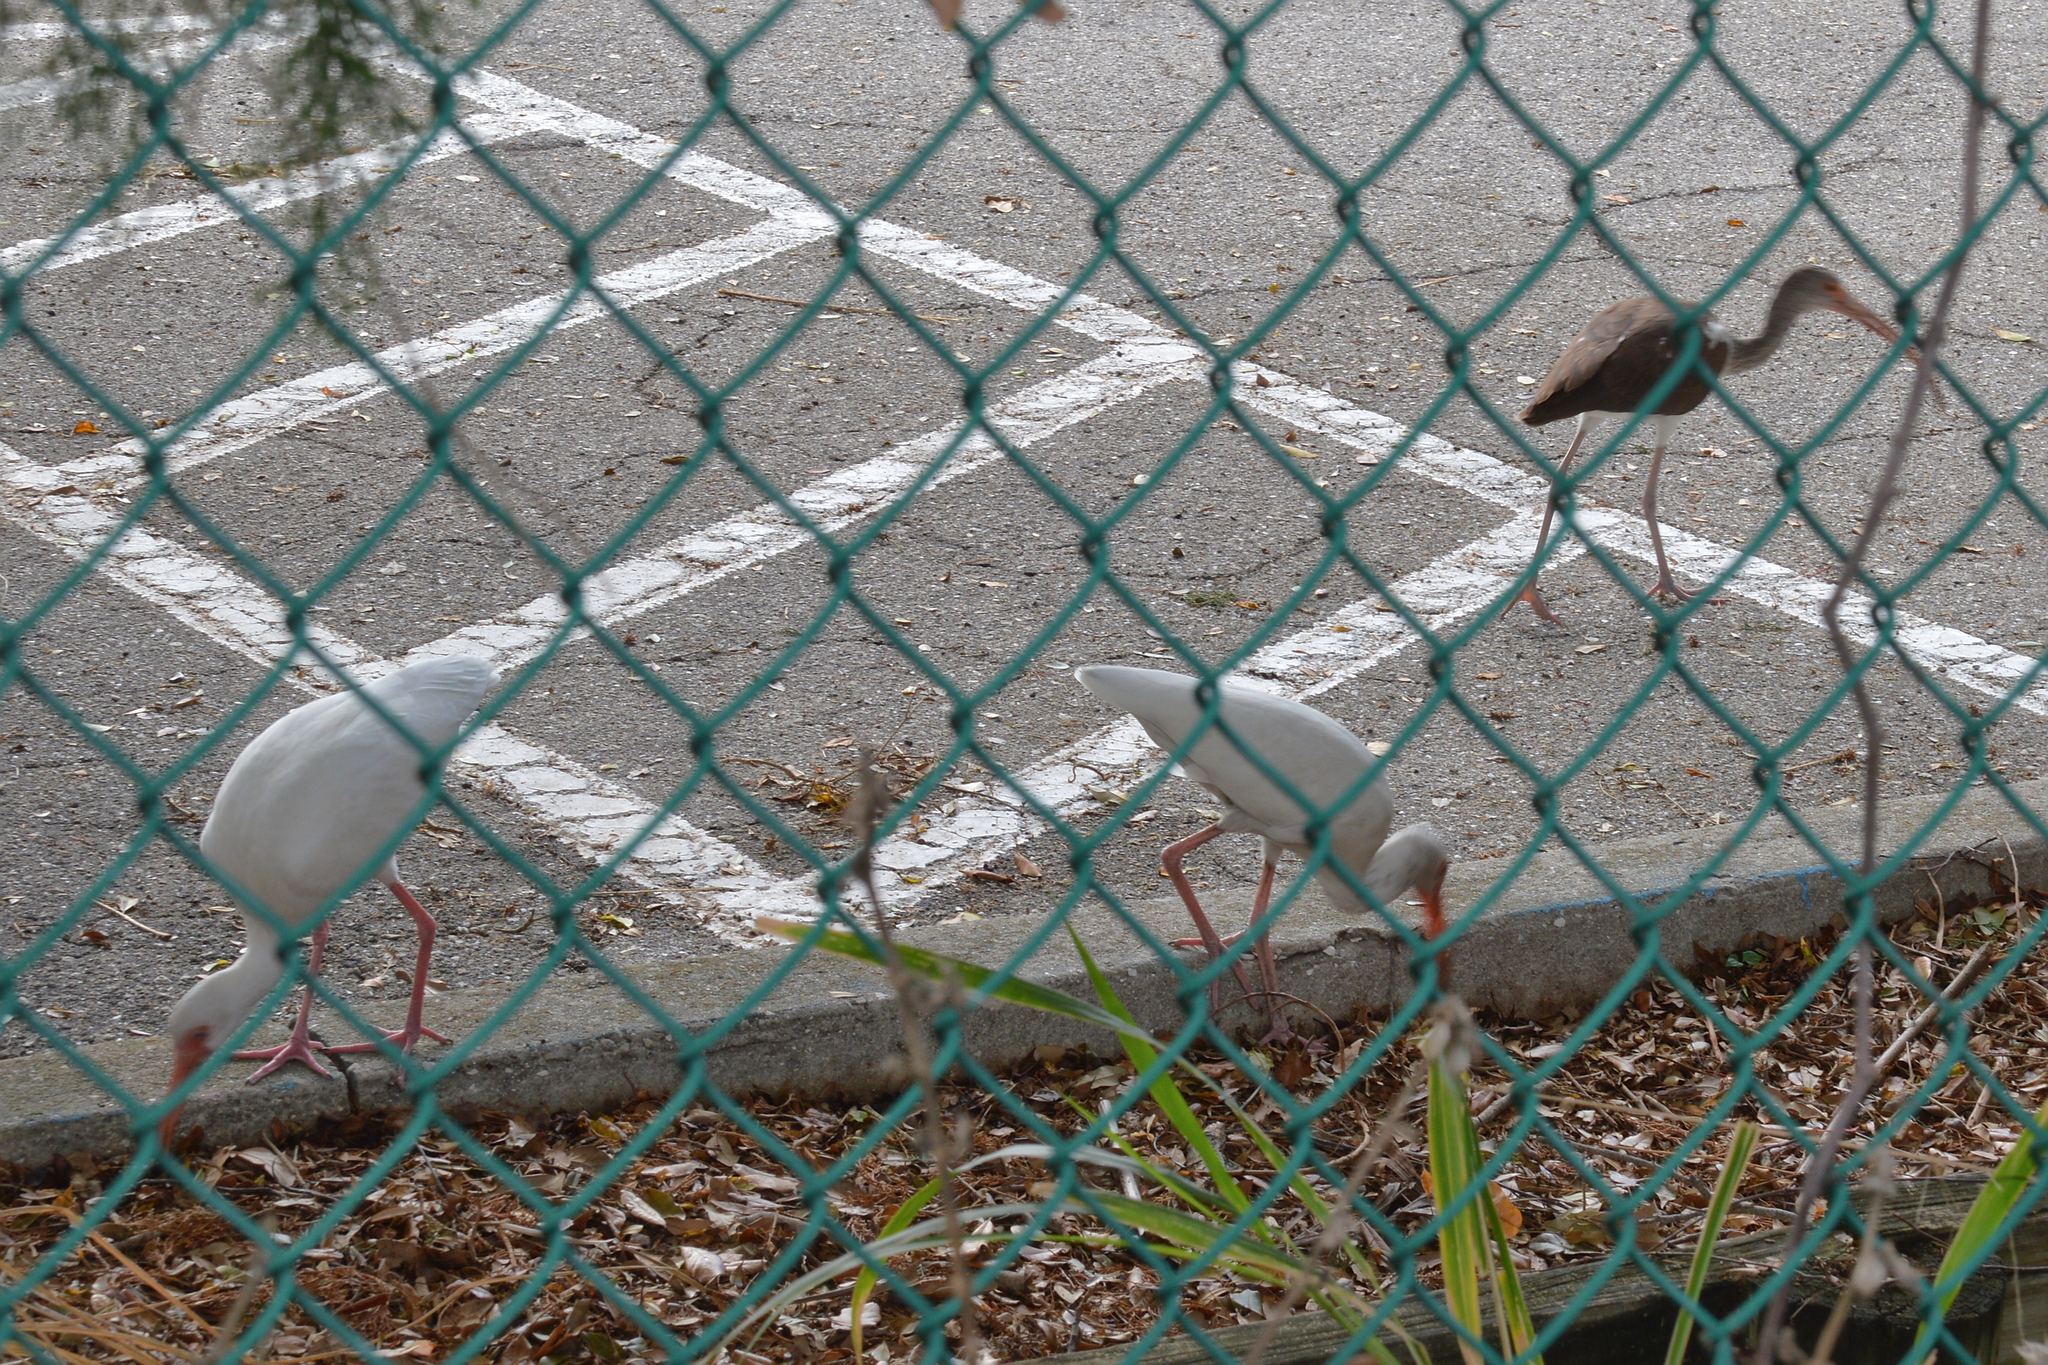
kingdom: Animalia
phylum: Chordata
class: Aves
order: Pelecaniformes
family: Threskiornithidae
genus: Eudocimus
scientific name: Eudocimus albus
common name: White ibis
